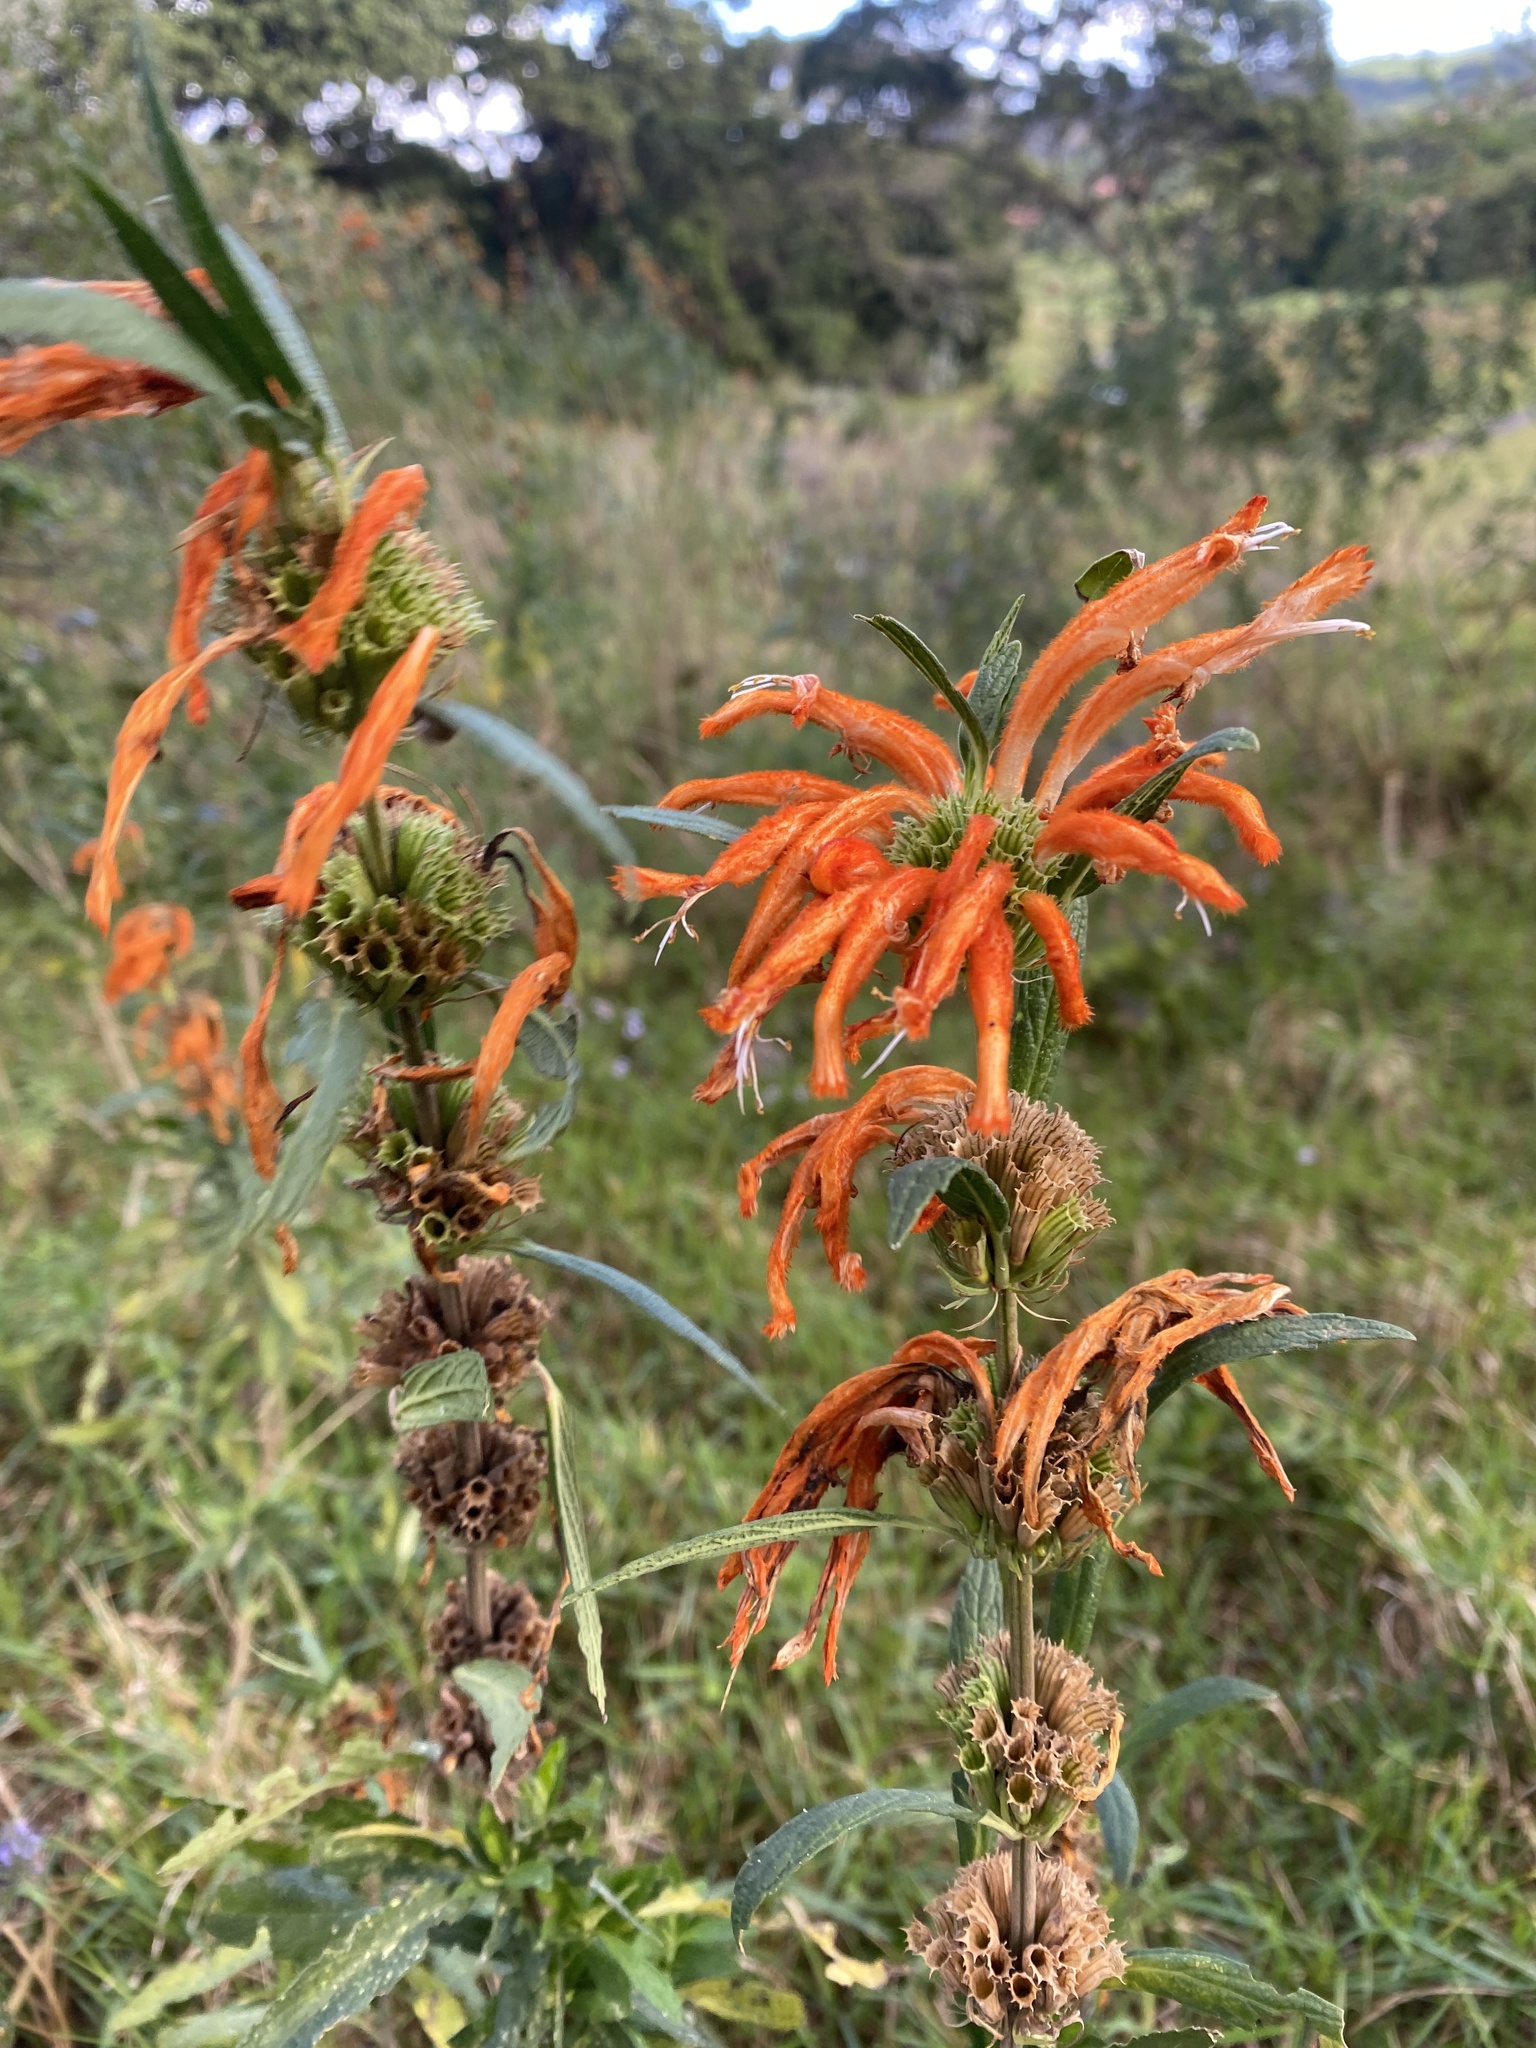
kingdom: Plantae
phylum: Tracheophyta
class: Magnoliopsida
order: Lamiales
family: Lamiaceae
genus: Leonotis
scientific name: Leonotis leonurus
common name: Lion's ear
